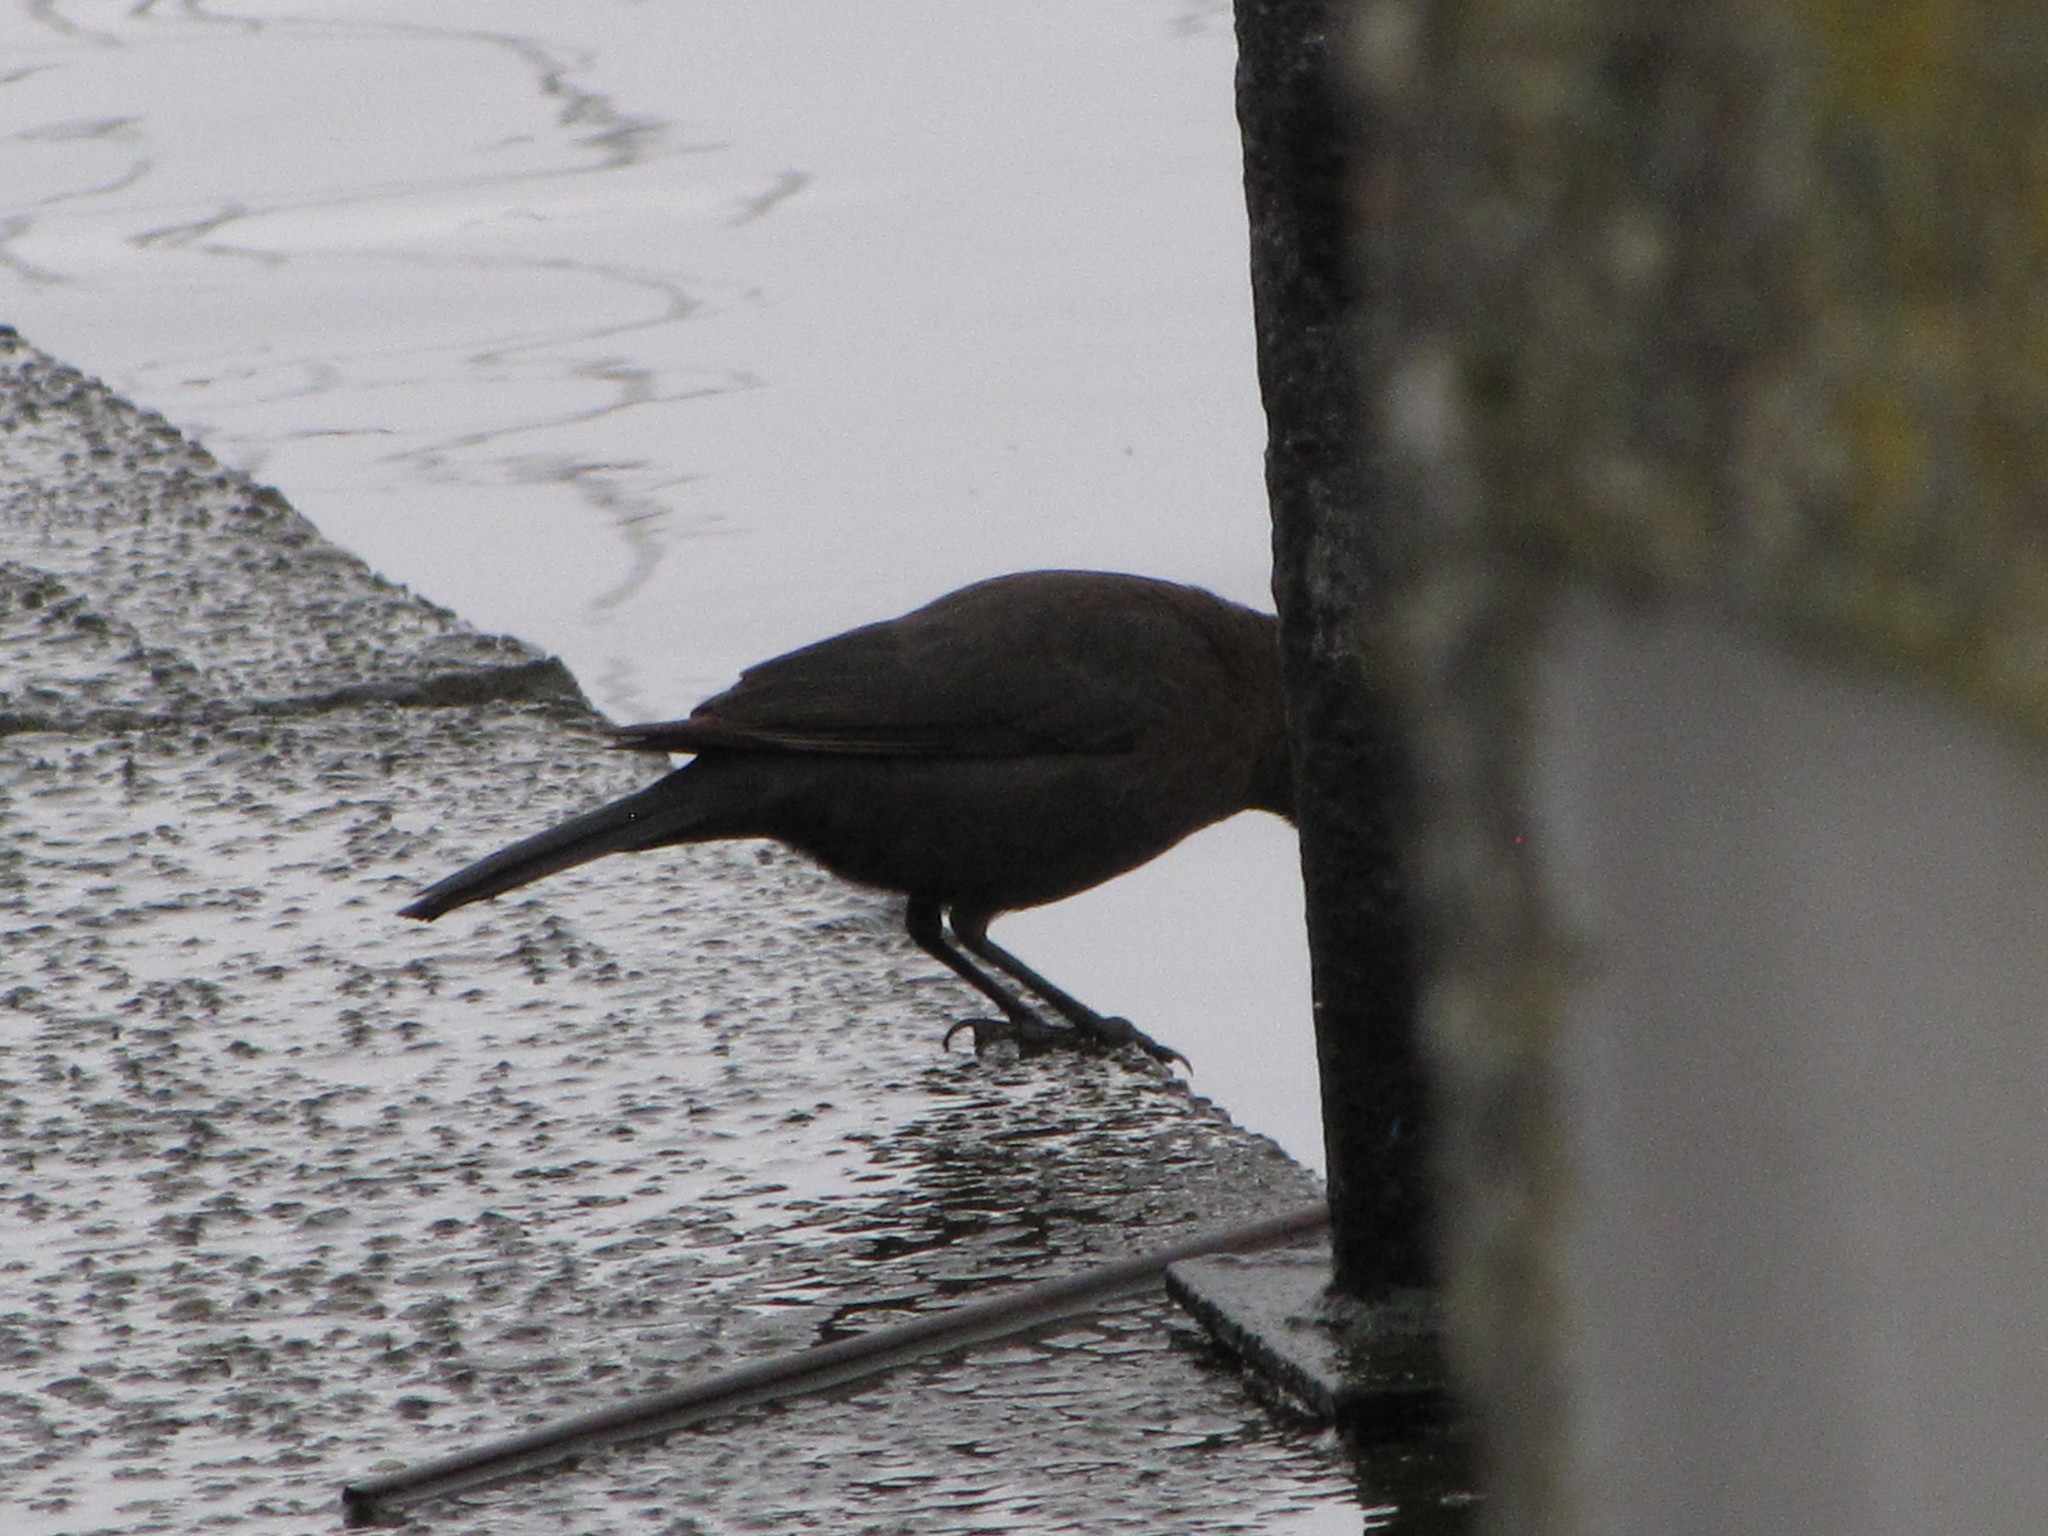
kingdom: Animalia
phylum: Chordata
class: Aves
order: Passeriformes
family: Icteridae
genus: Euphagus
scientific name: Euphagus cyanocephalus
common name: Brewer's blackbird
